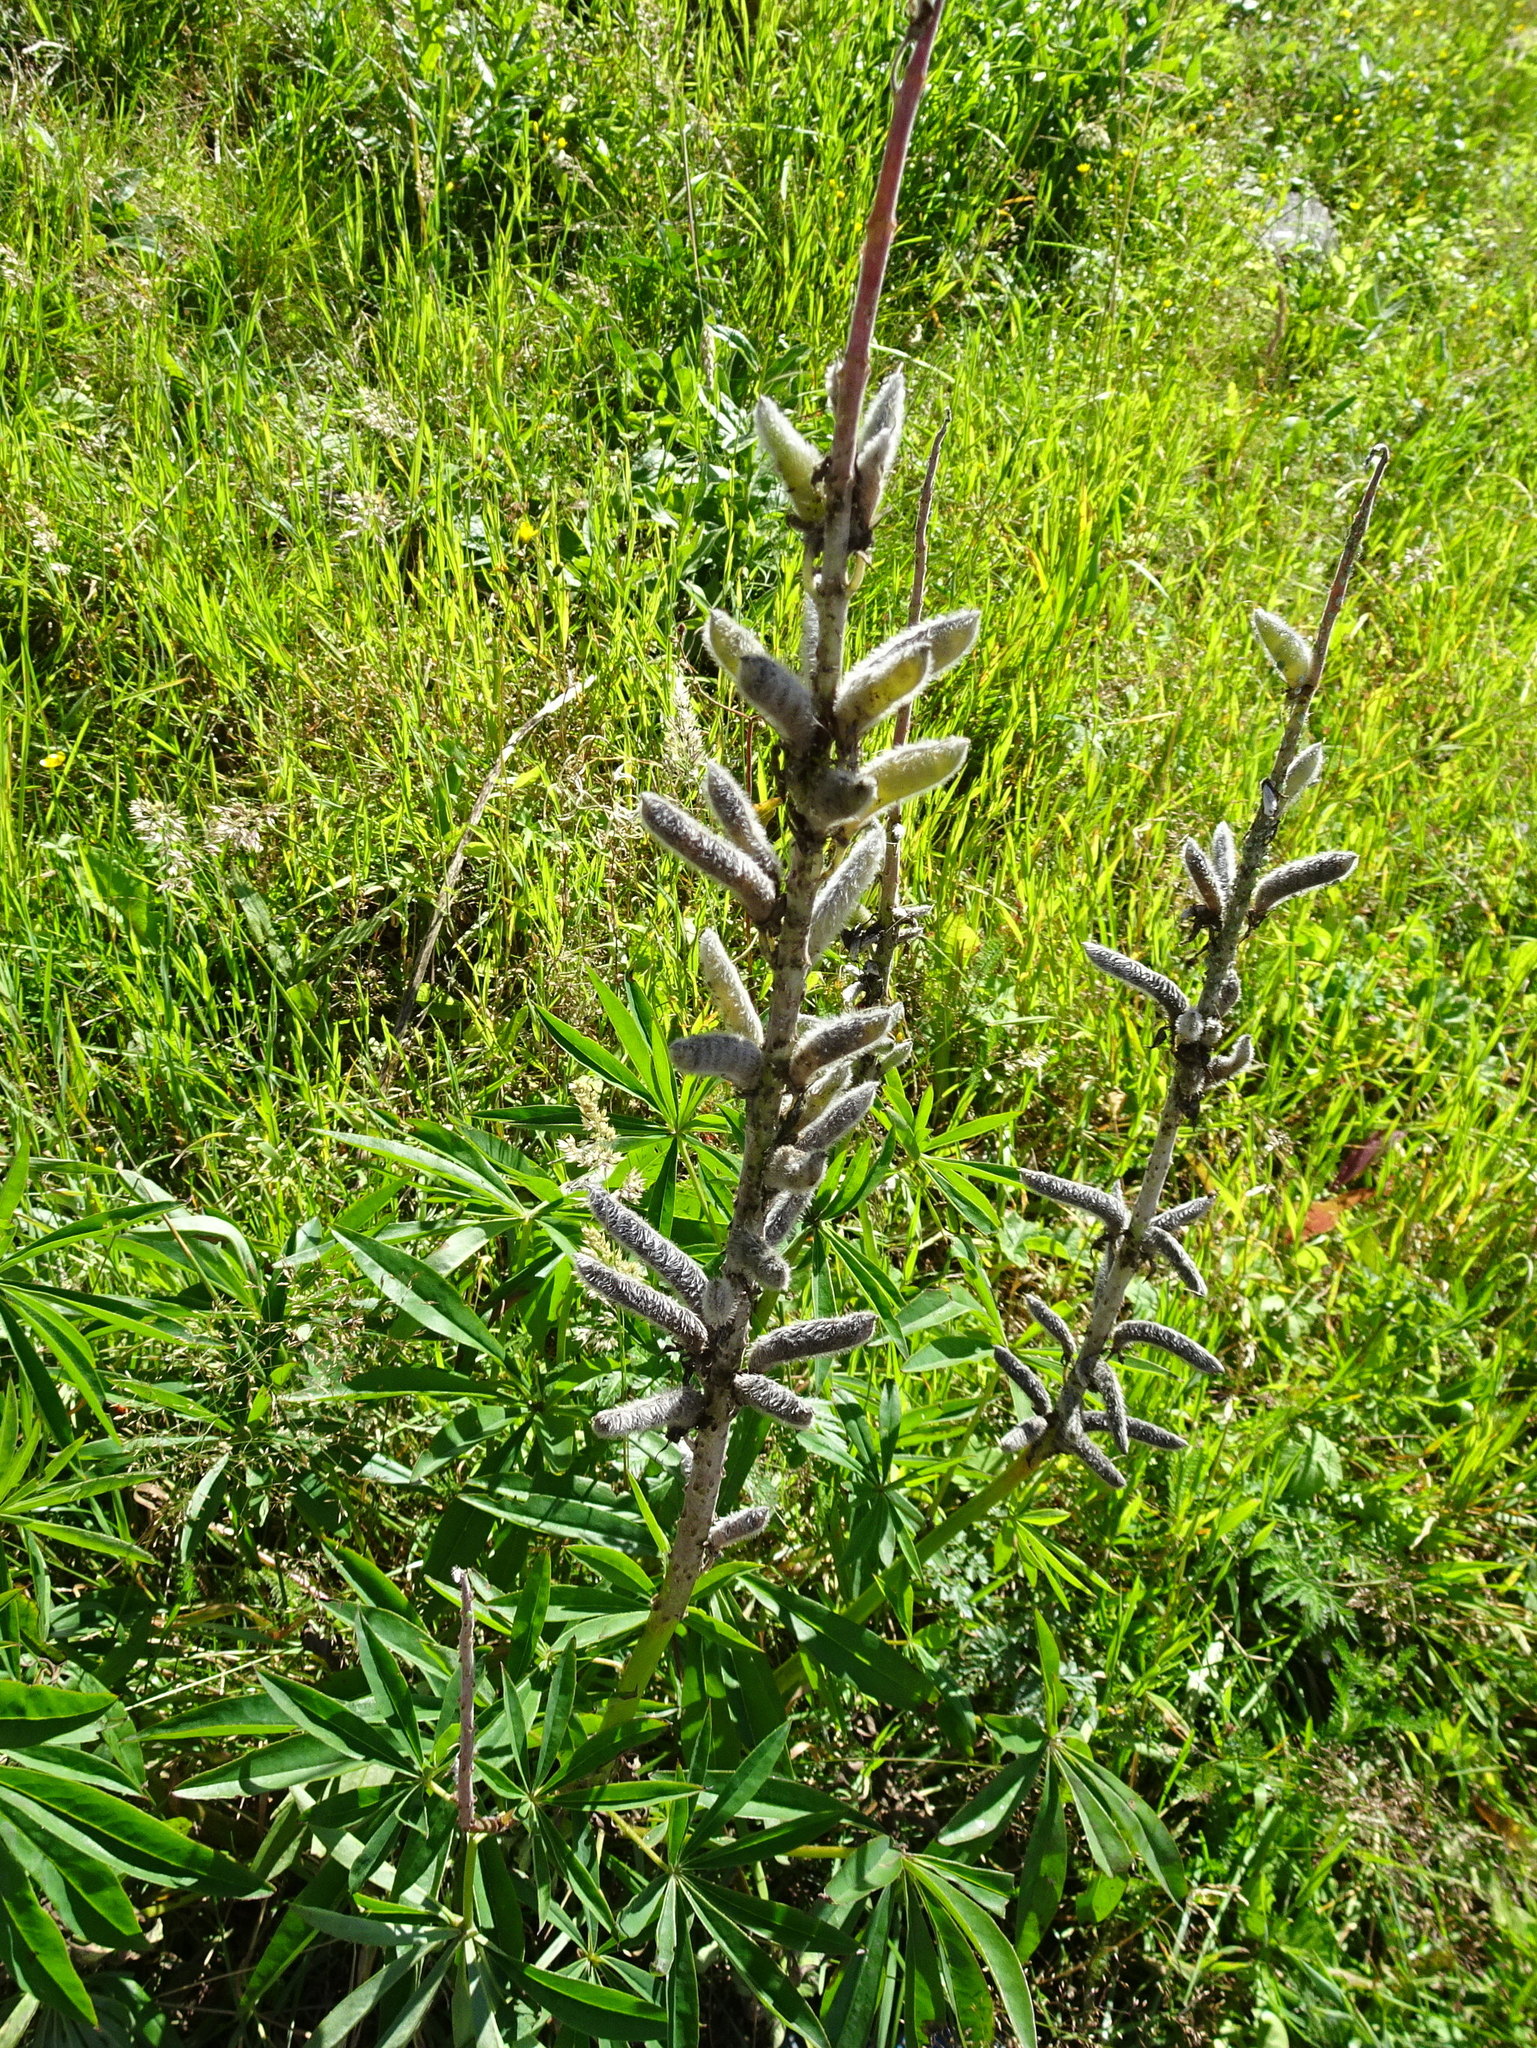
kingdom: Plantae
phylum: Tracheophyta
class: Magnoliopsida
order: Fabales
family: Fabaceae
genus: Lupinus
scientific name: Lupinus polyphyllus
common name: Garden lupin
